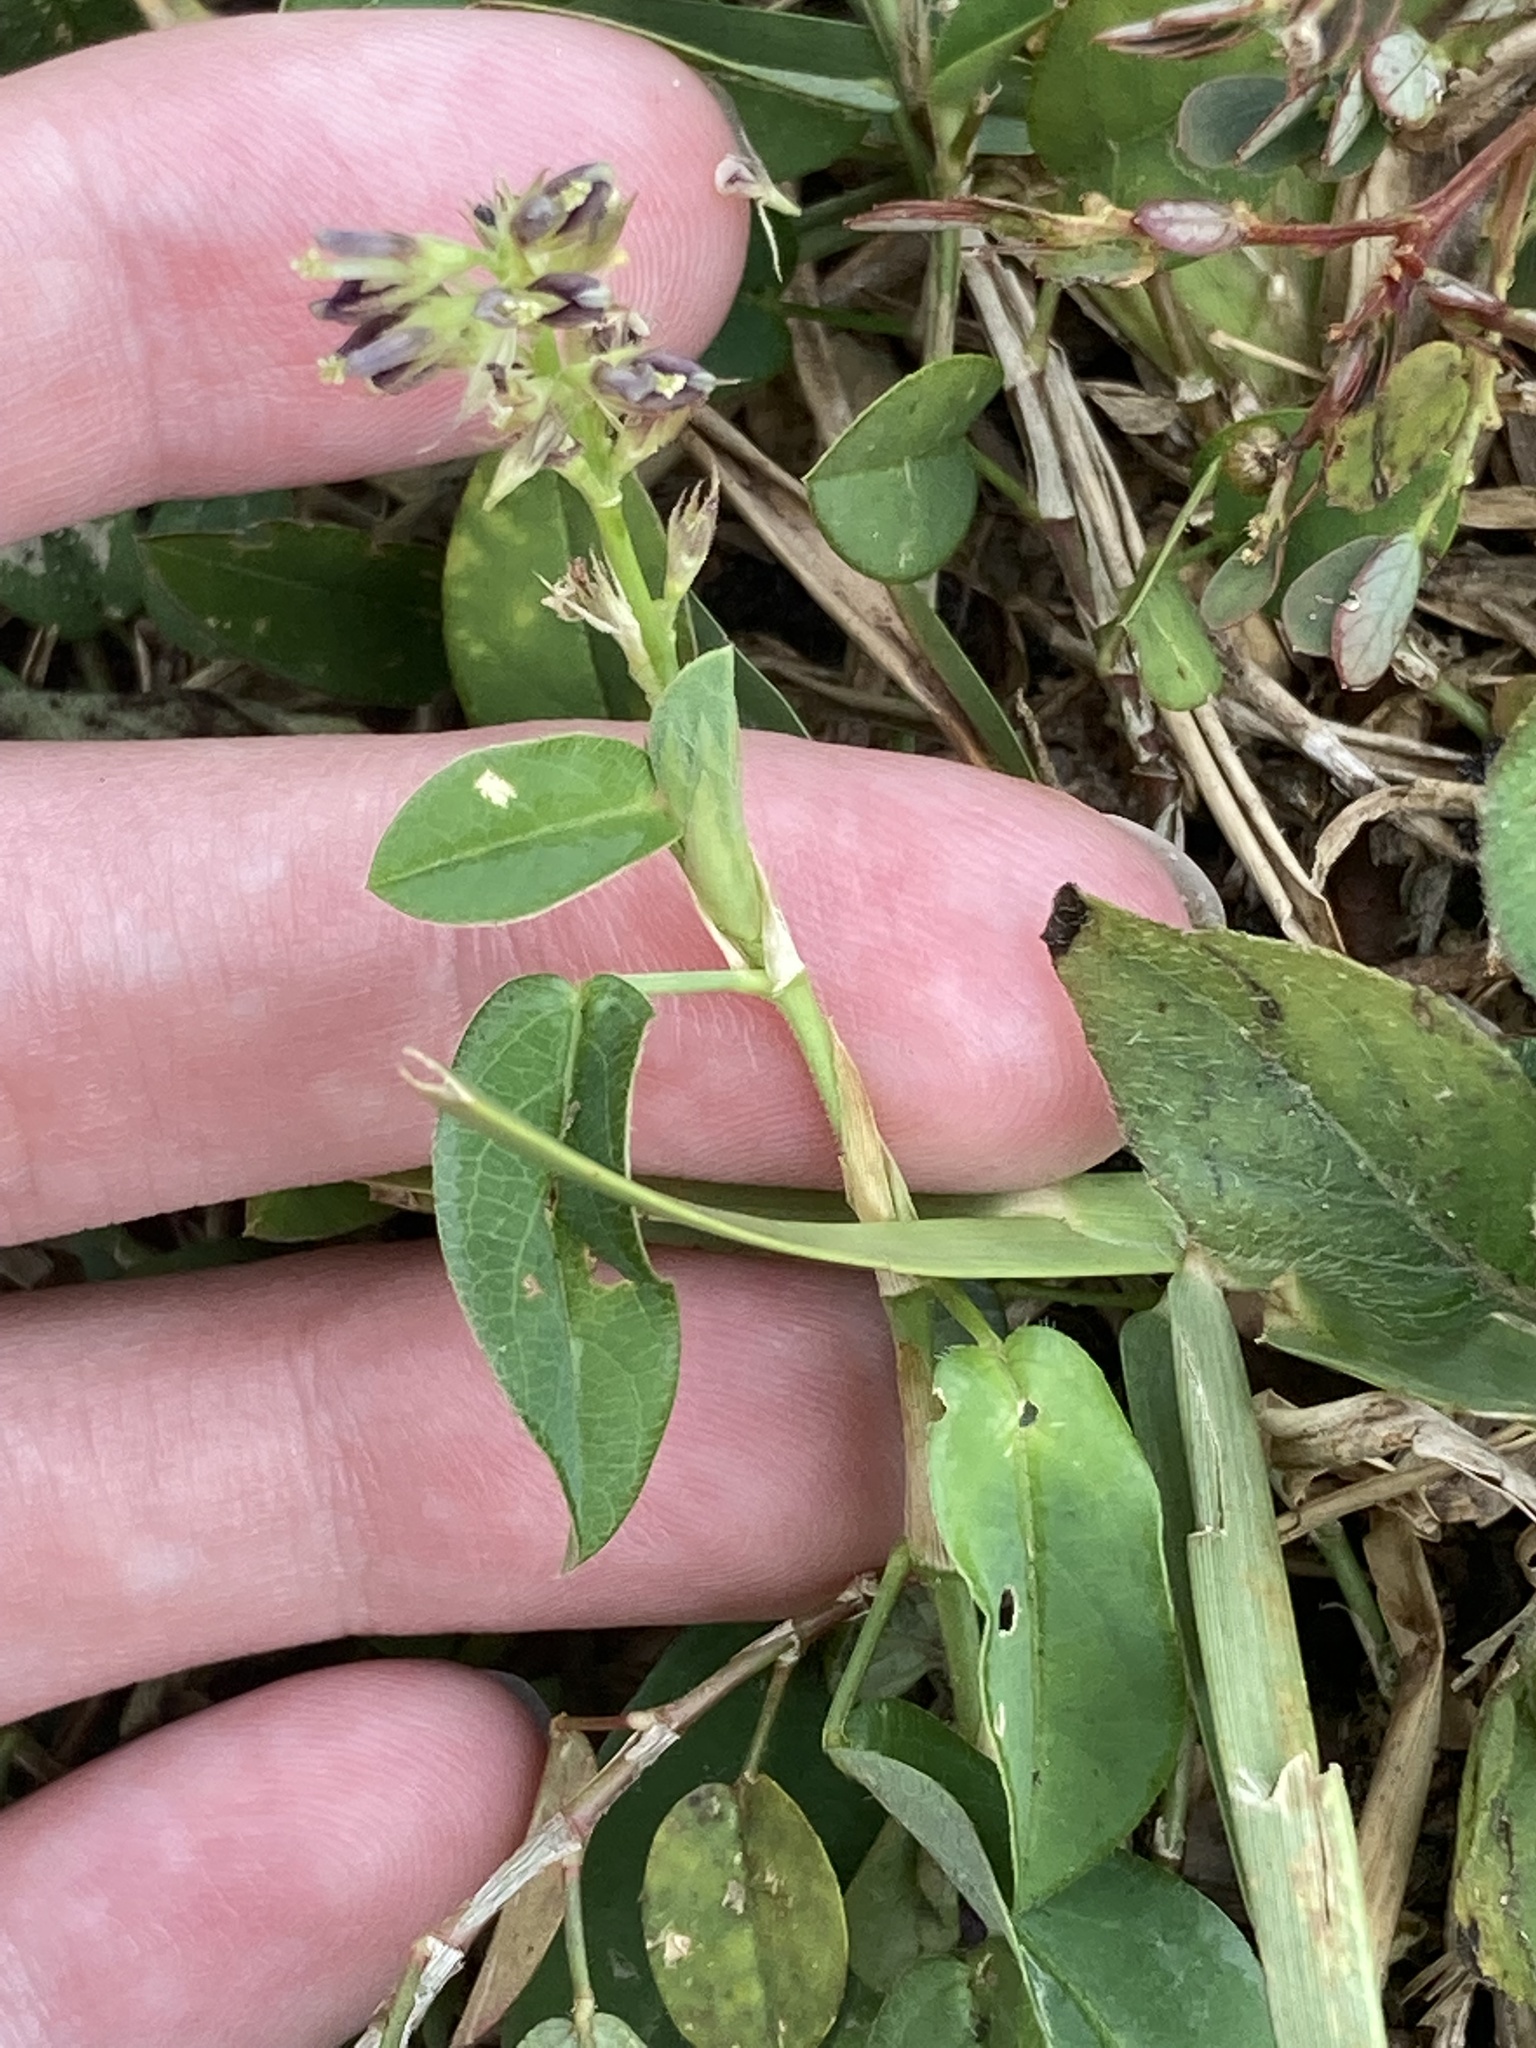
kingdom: Plantae
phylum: Tracheophyta
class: Magnoliopsida
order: Fabales
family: Fabaceae
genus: Alysicarpus
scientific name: Alysicarpus vaginalis
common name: White moneywort
